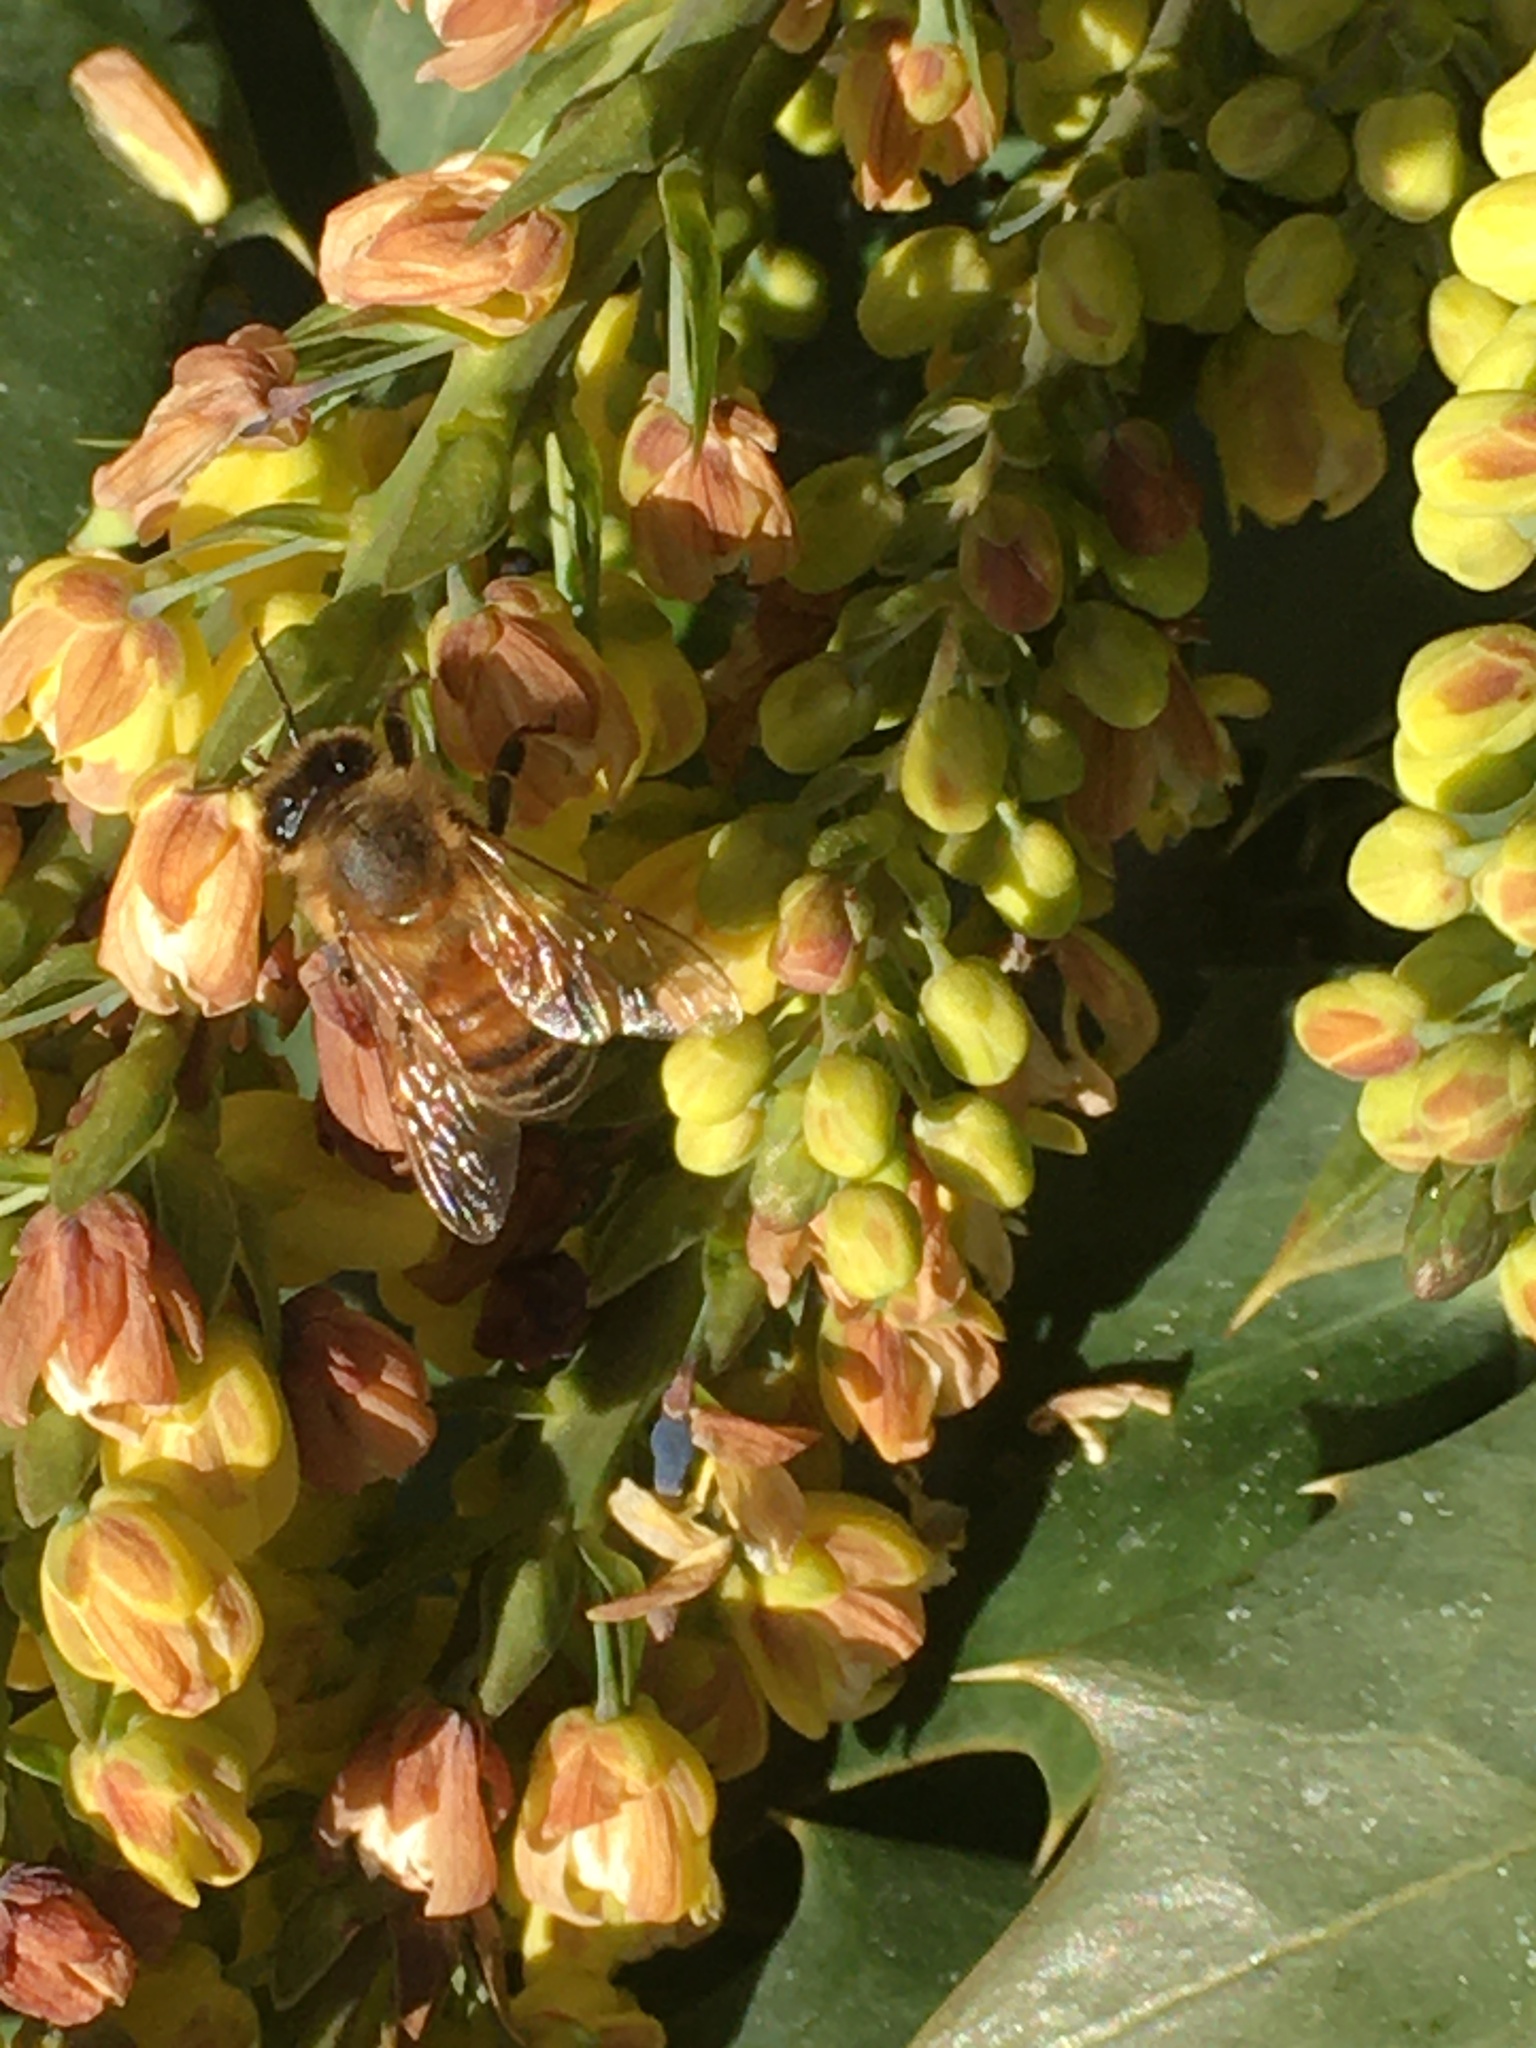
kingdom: Animalia
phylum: Arthropoda
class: Insecta
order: Hymenoptera
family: Apidae
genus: Apis
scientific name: Apis mellifera
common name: Honey bee
